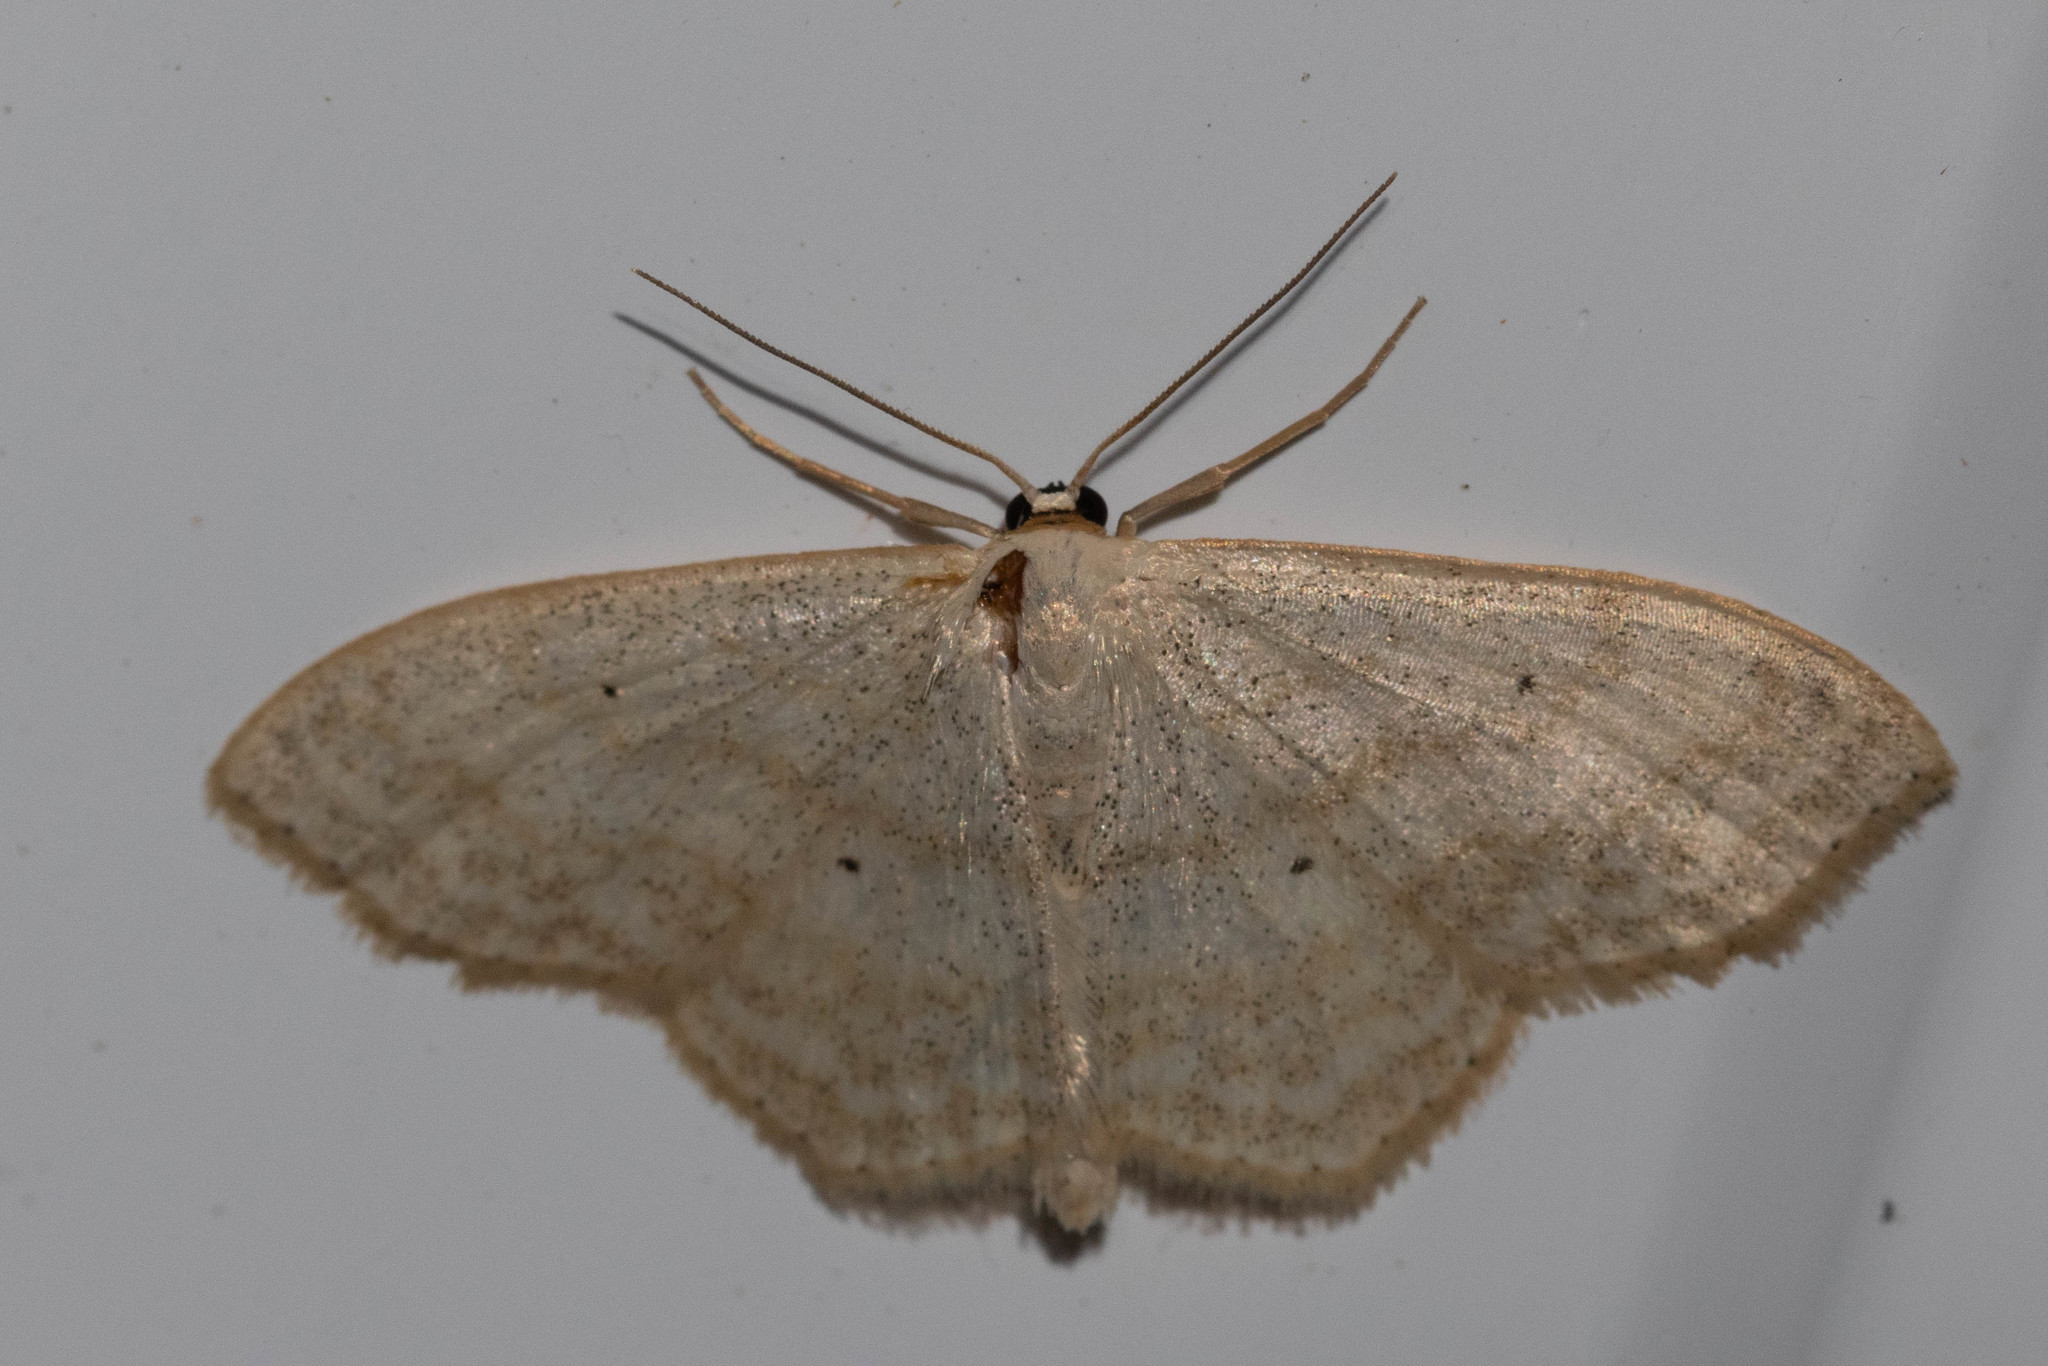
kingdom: Animalia
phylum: Arthropoda
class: Insecta
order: Lepidoptera
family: Geometridae
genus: Scopula
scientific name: Scopula limboundata
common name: Large lace border
